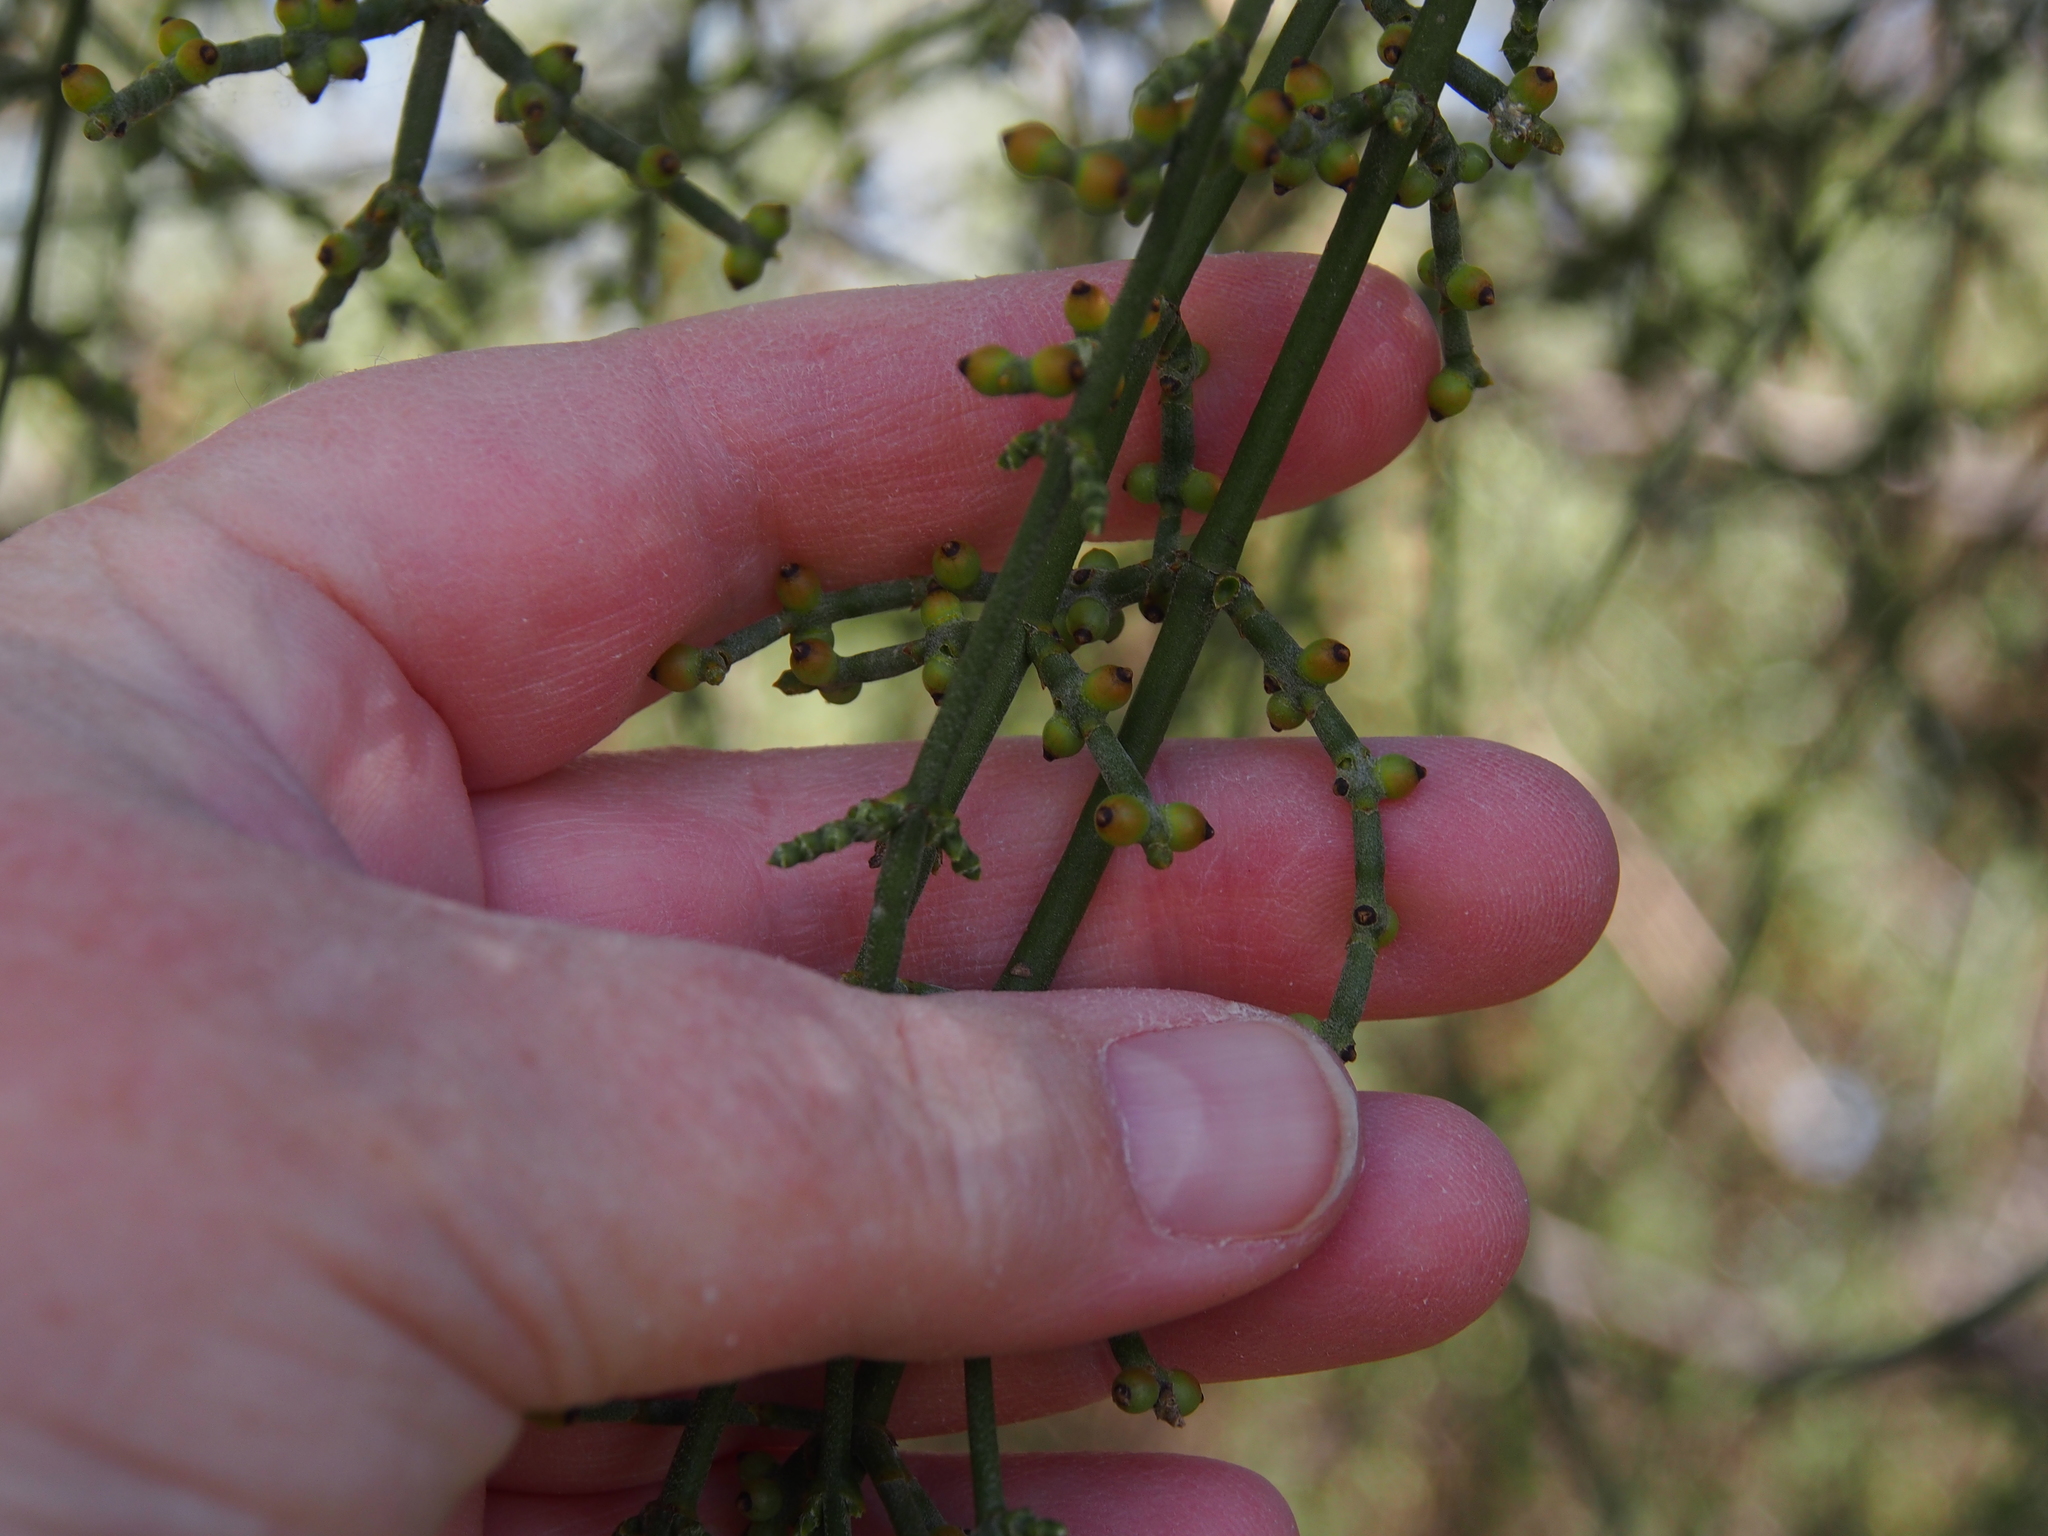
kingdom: Plantae
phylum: Tracheophyta
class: Magnoliopsida
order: Santalales
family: Viscaceae
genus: Phoradendron
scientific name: Phoradendron californicum
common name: Acacia mistletoe
